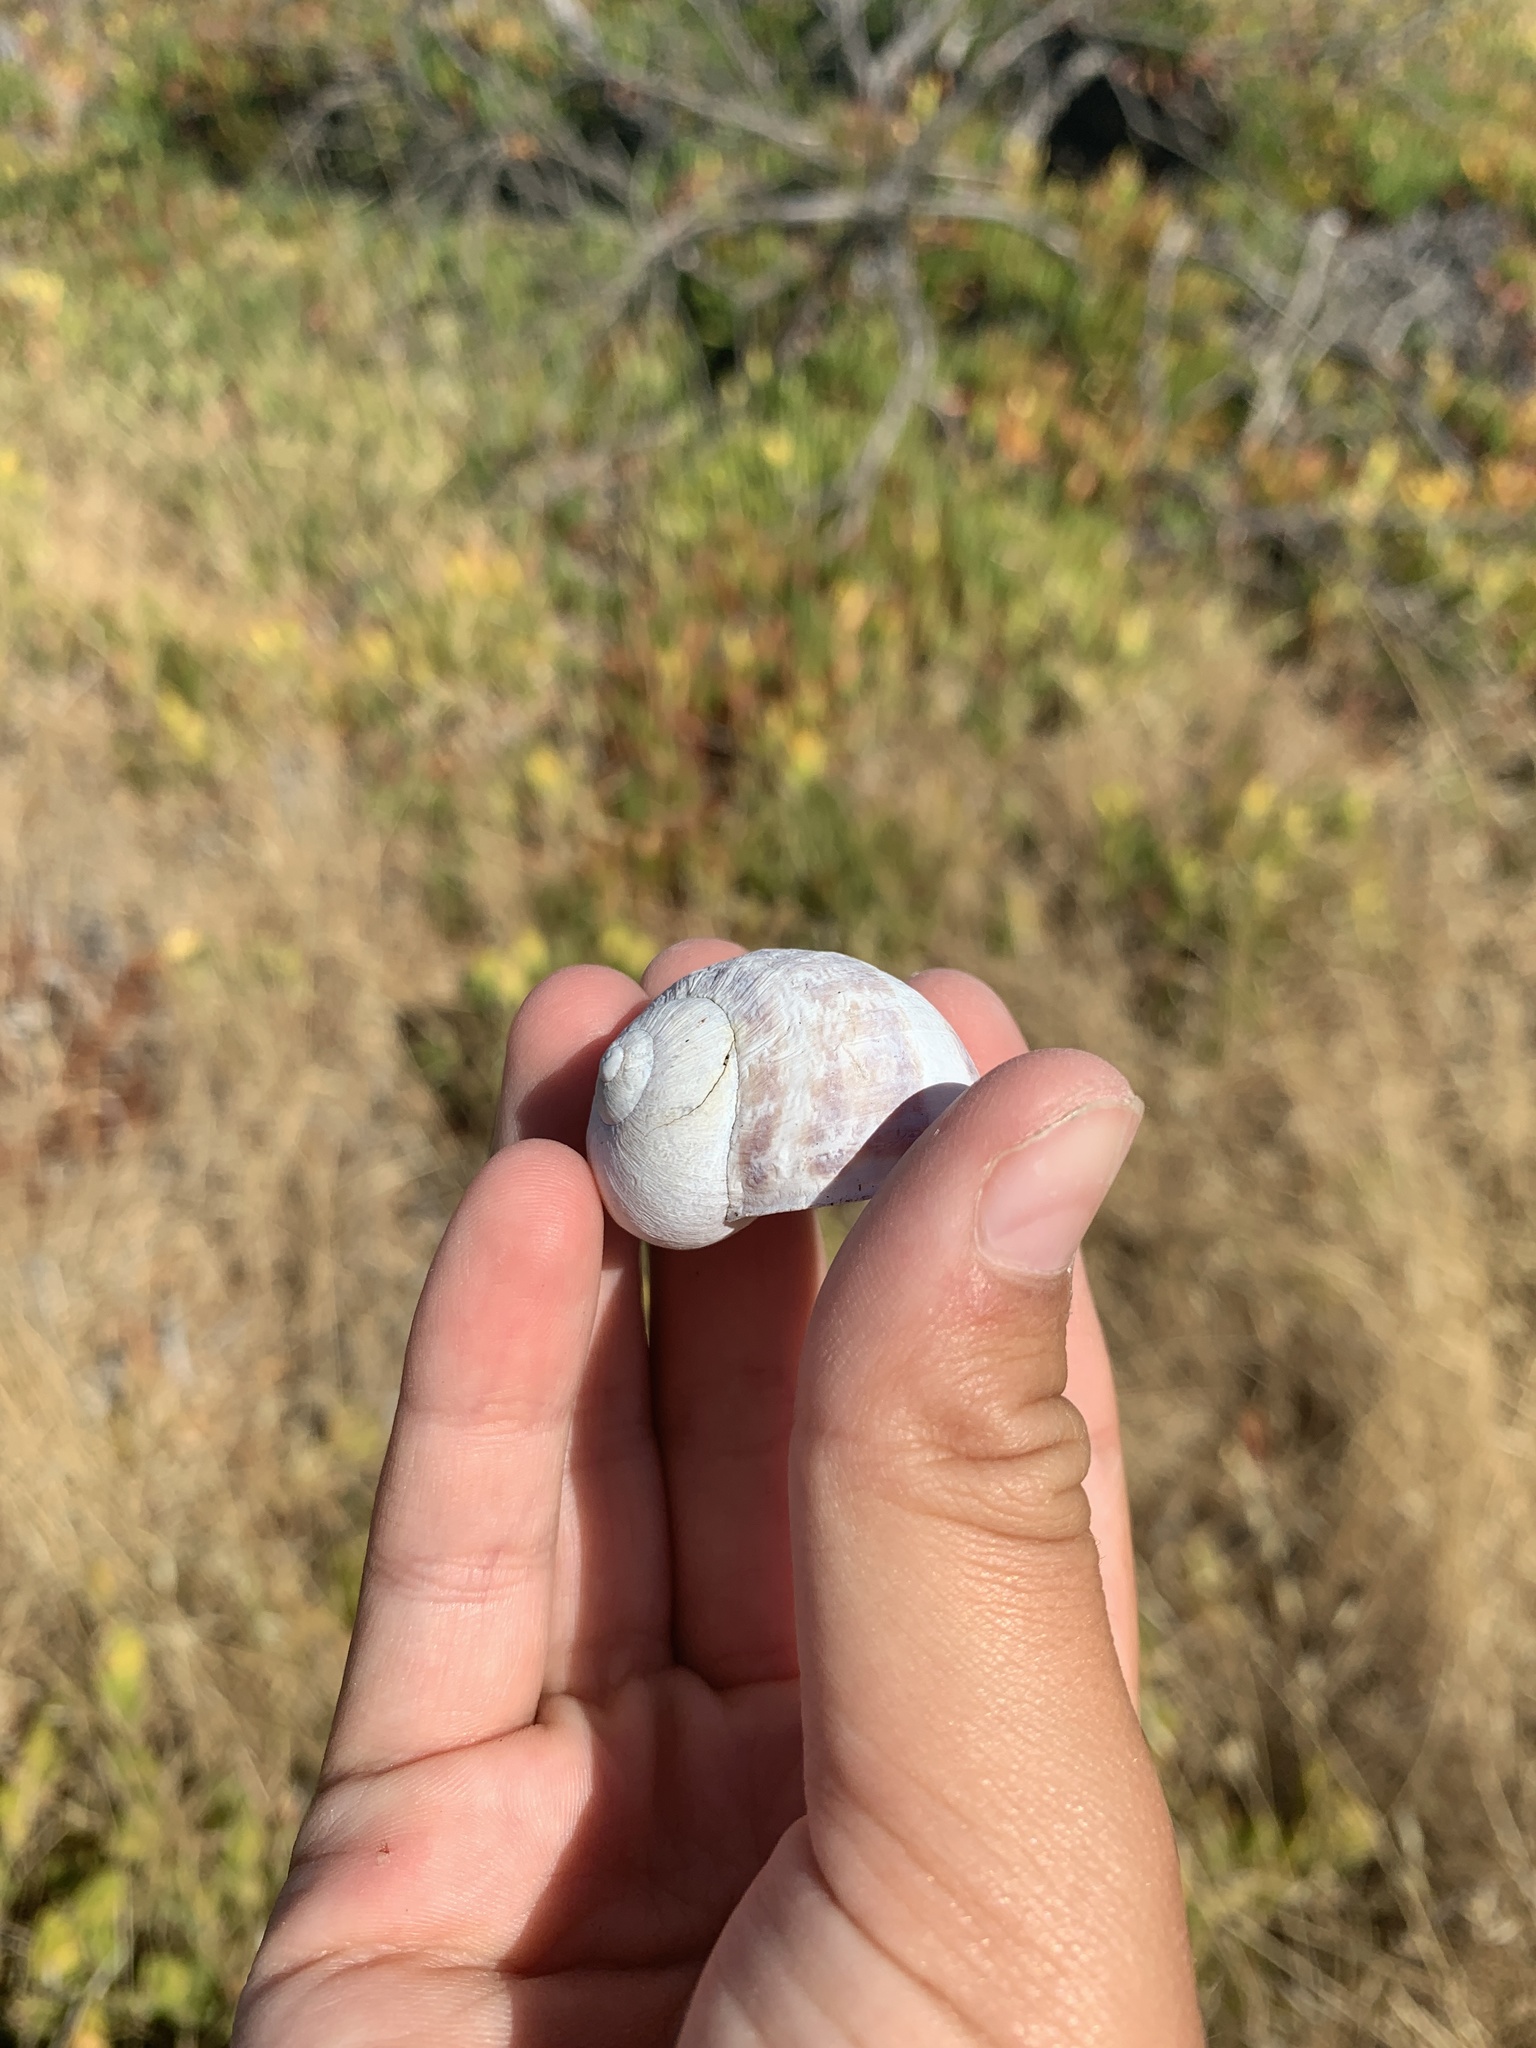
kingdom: Animalia
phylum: Mollusca
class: Gastropoda
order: Stylommatophora
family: Helicidae
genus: Cornu
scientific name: Cornu aspersum
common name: Brown garden snail
